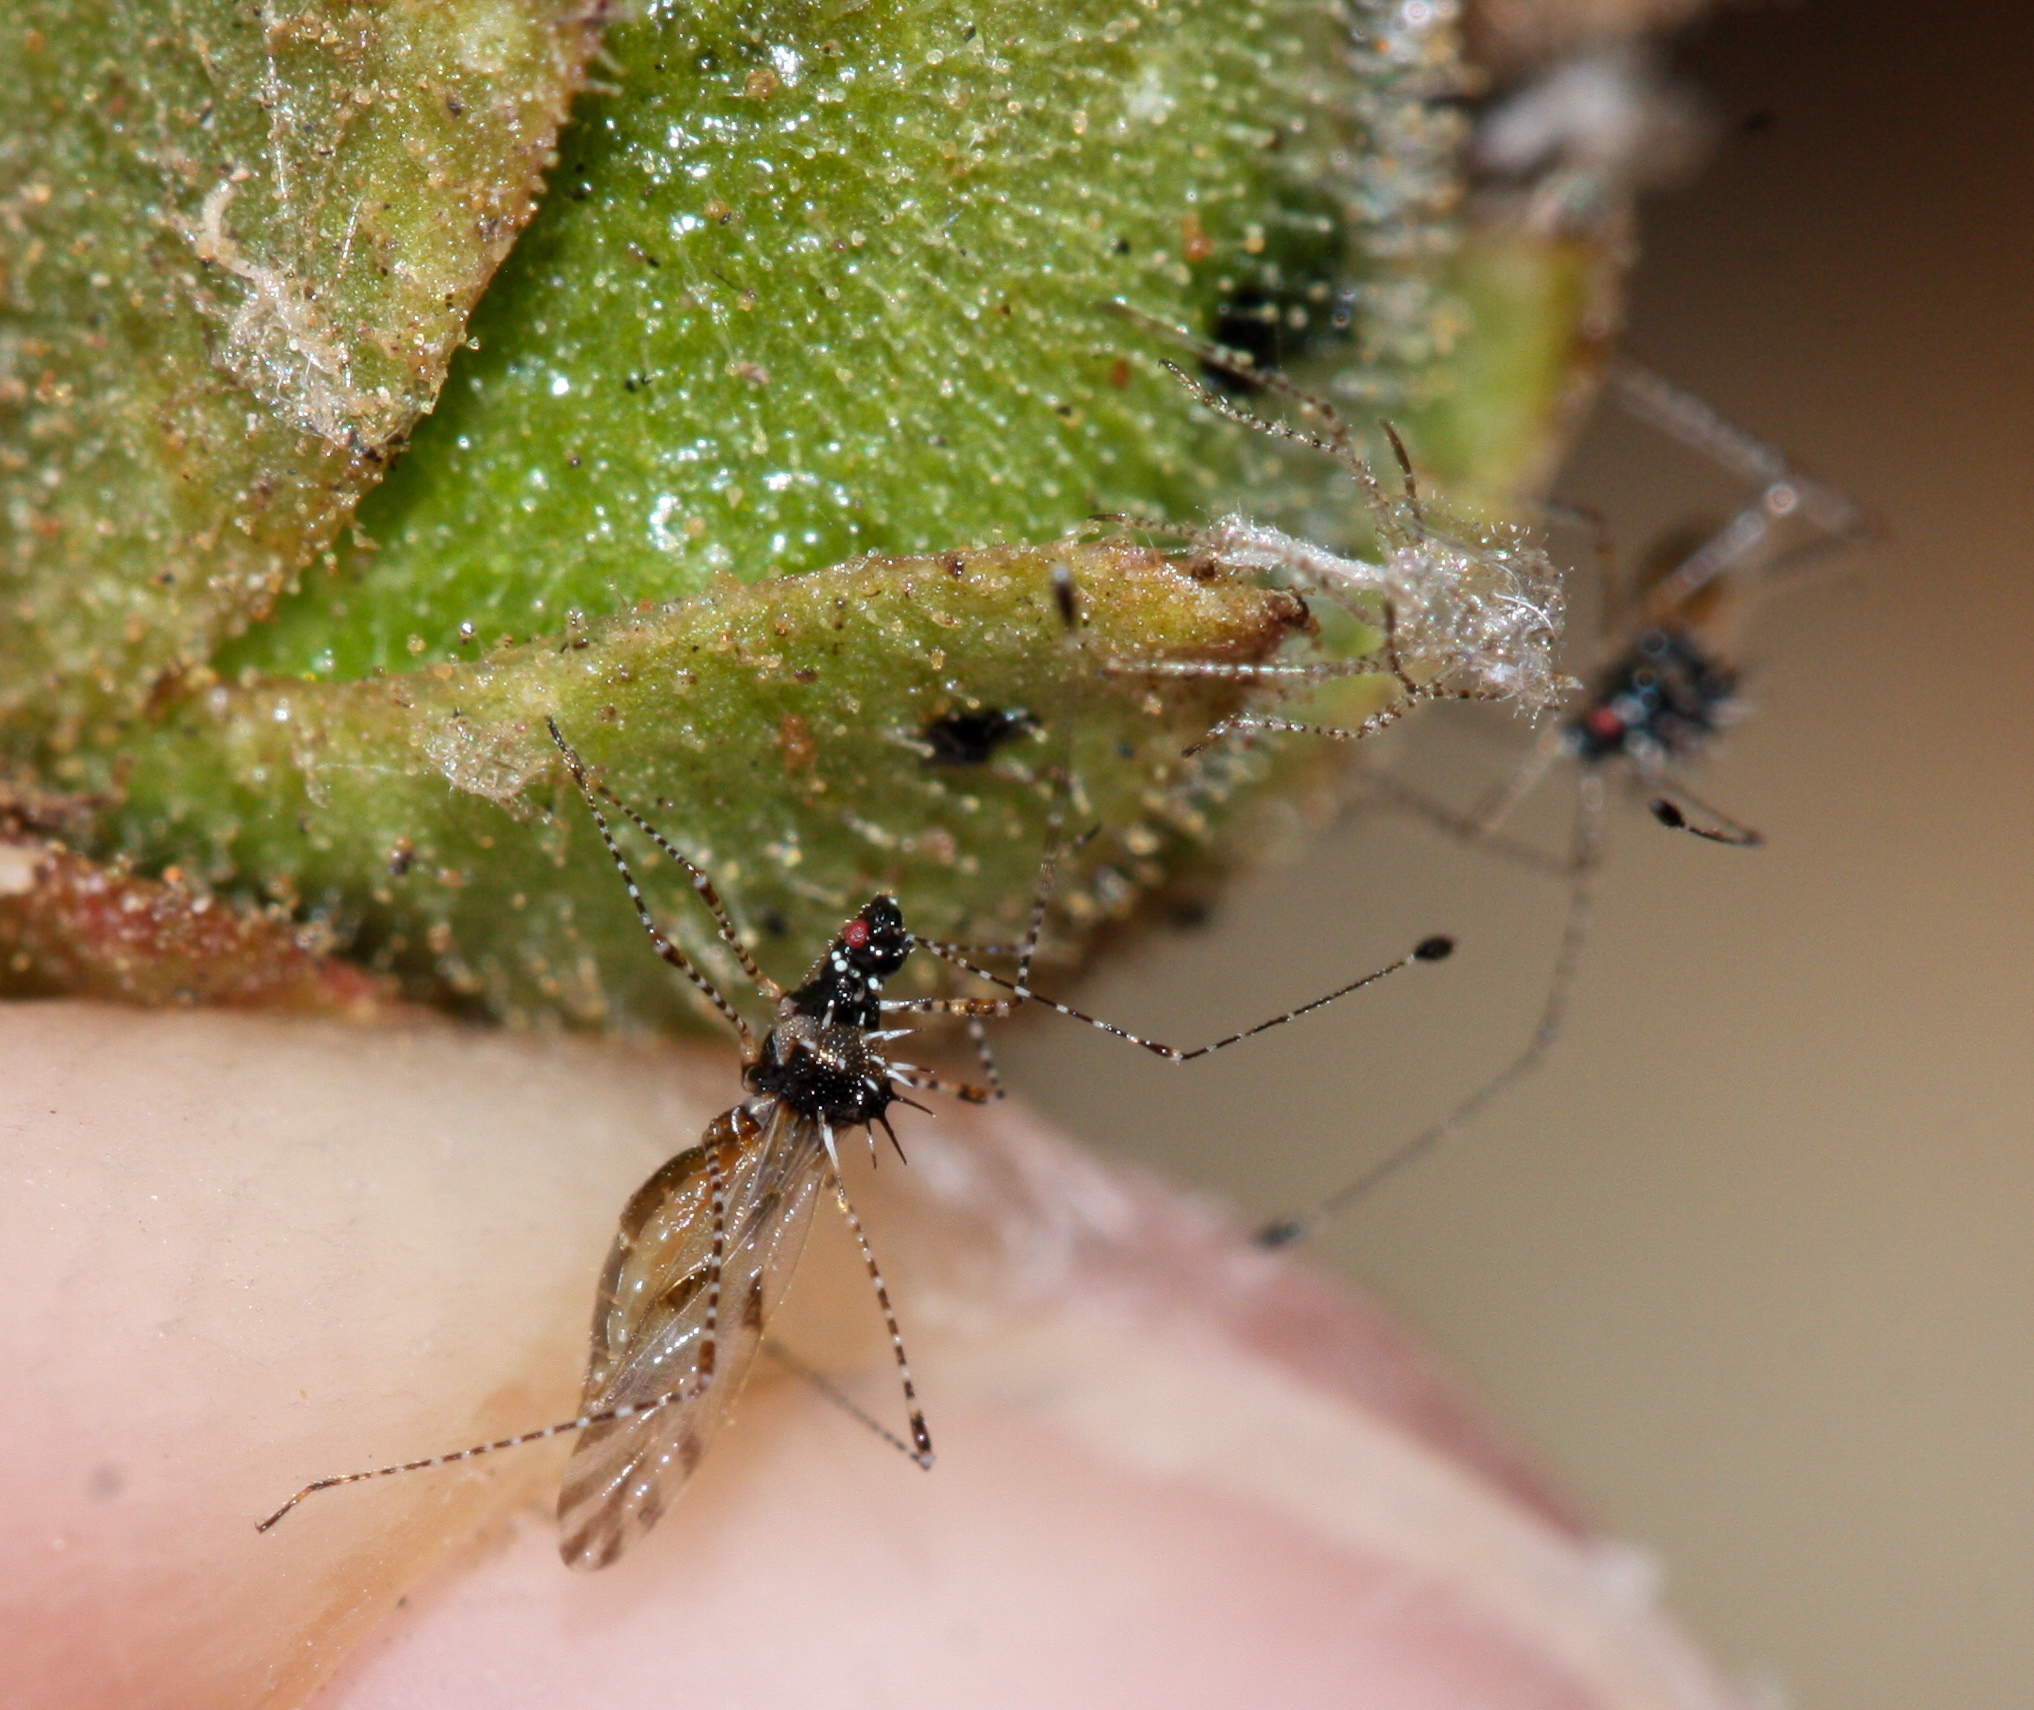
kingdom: Animalia
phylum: Arthropoda
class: Insecta
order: Hemiptera
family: Berytidae
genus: Pronotacantha
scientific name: Pronotacantha annulata
